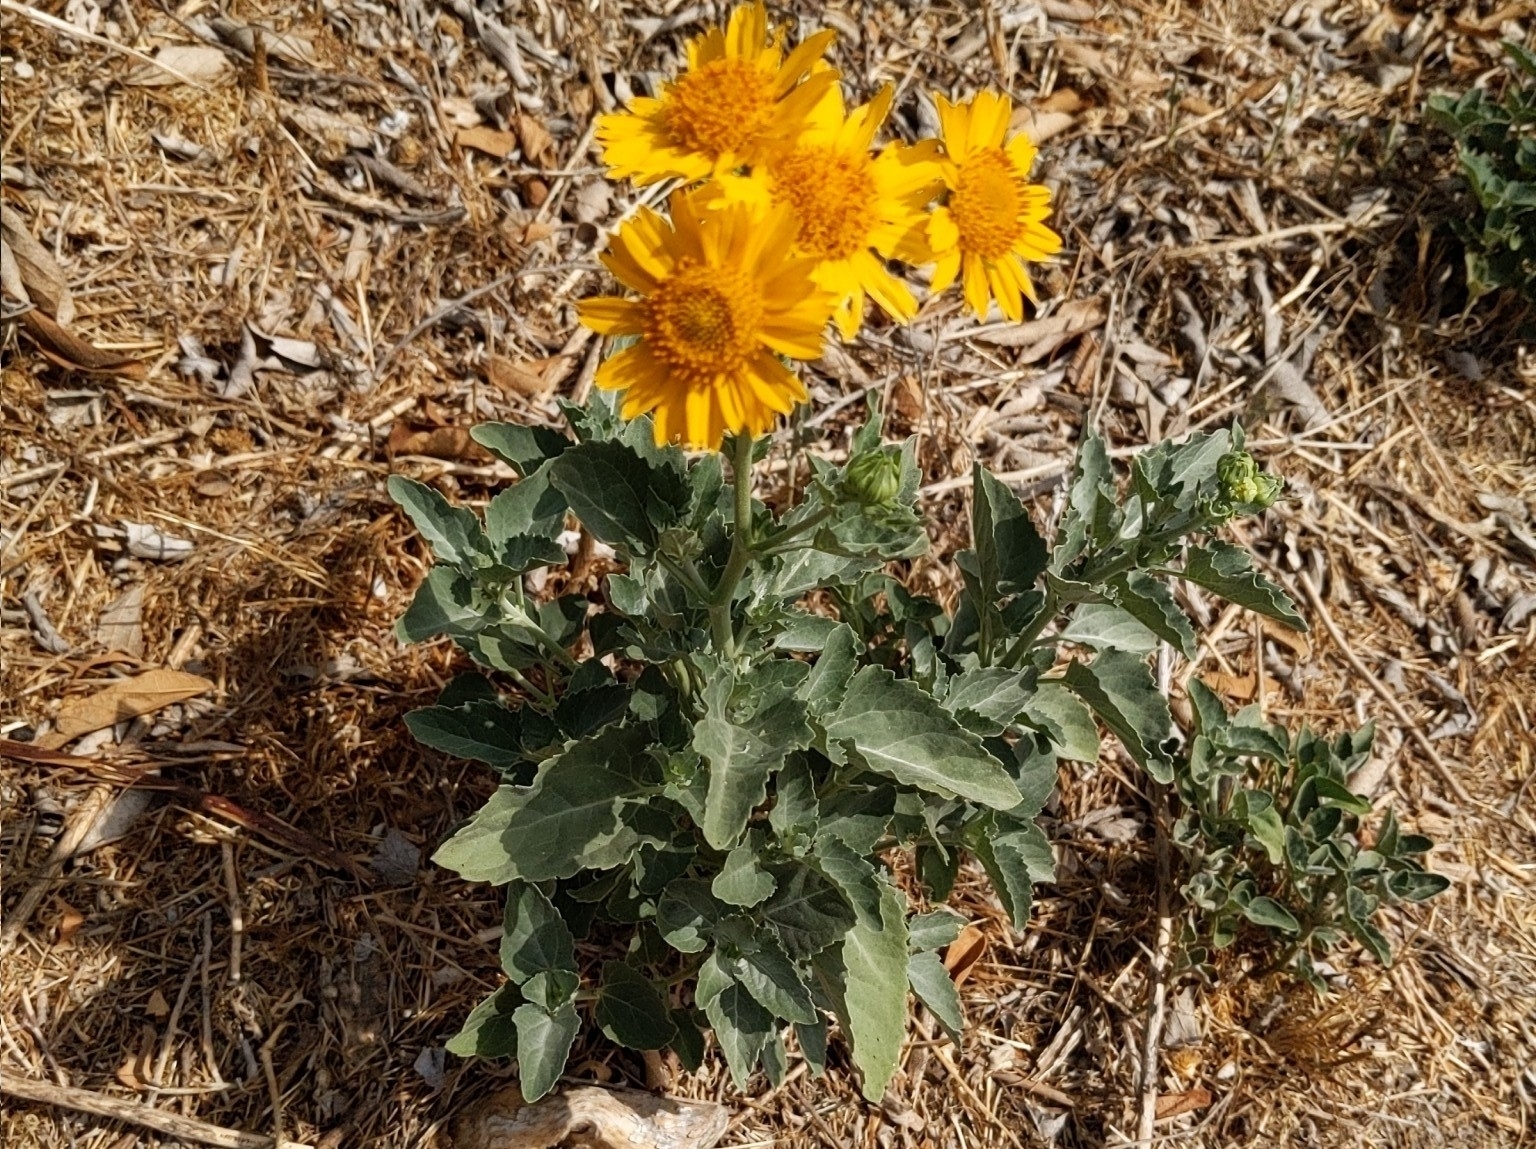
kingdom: Plantae
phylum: Tracheophyta
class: Magnoliopsida
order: Asterales
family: Asteraceae
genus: Verbesina
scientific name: Verbesina encelioides
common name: Golden crownbeard
